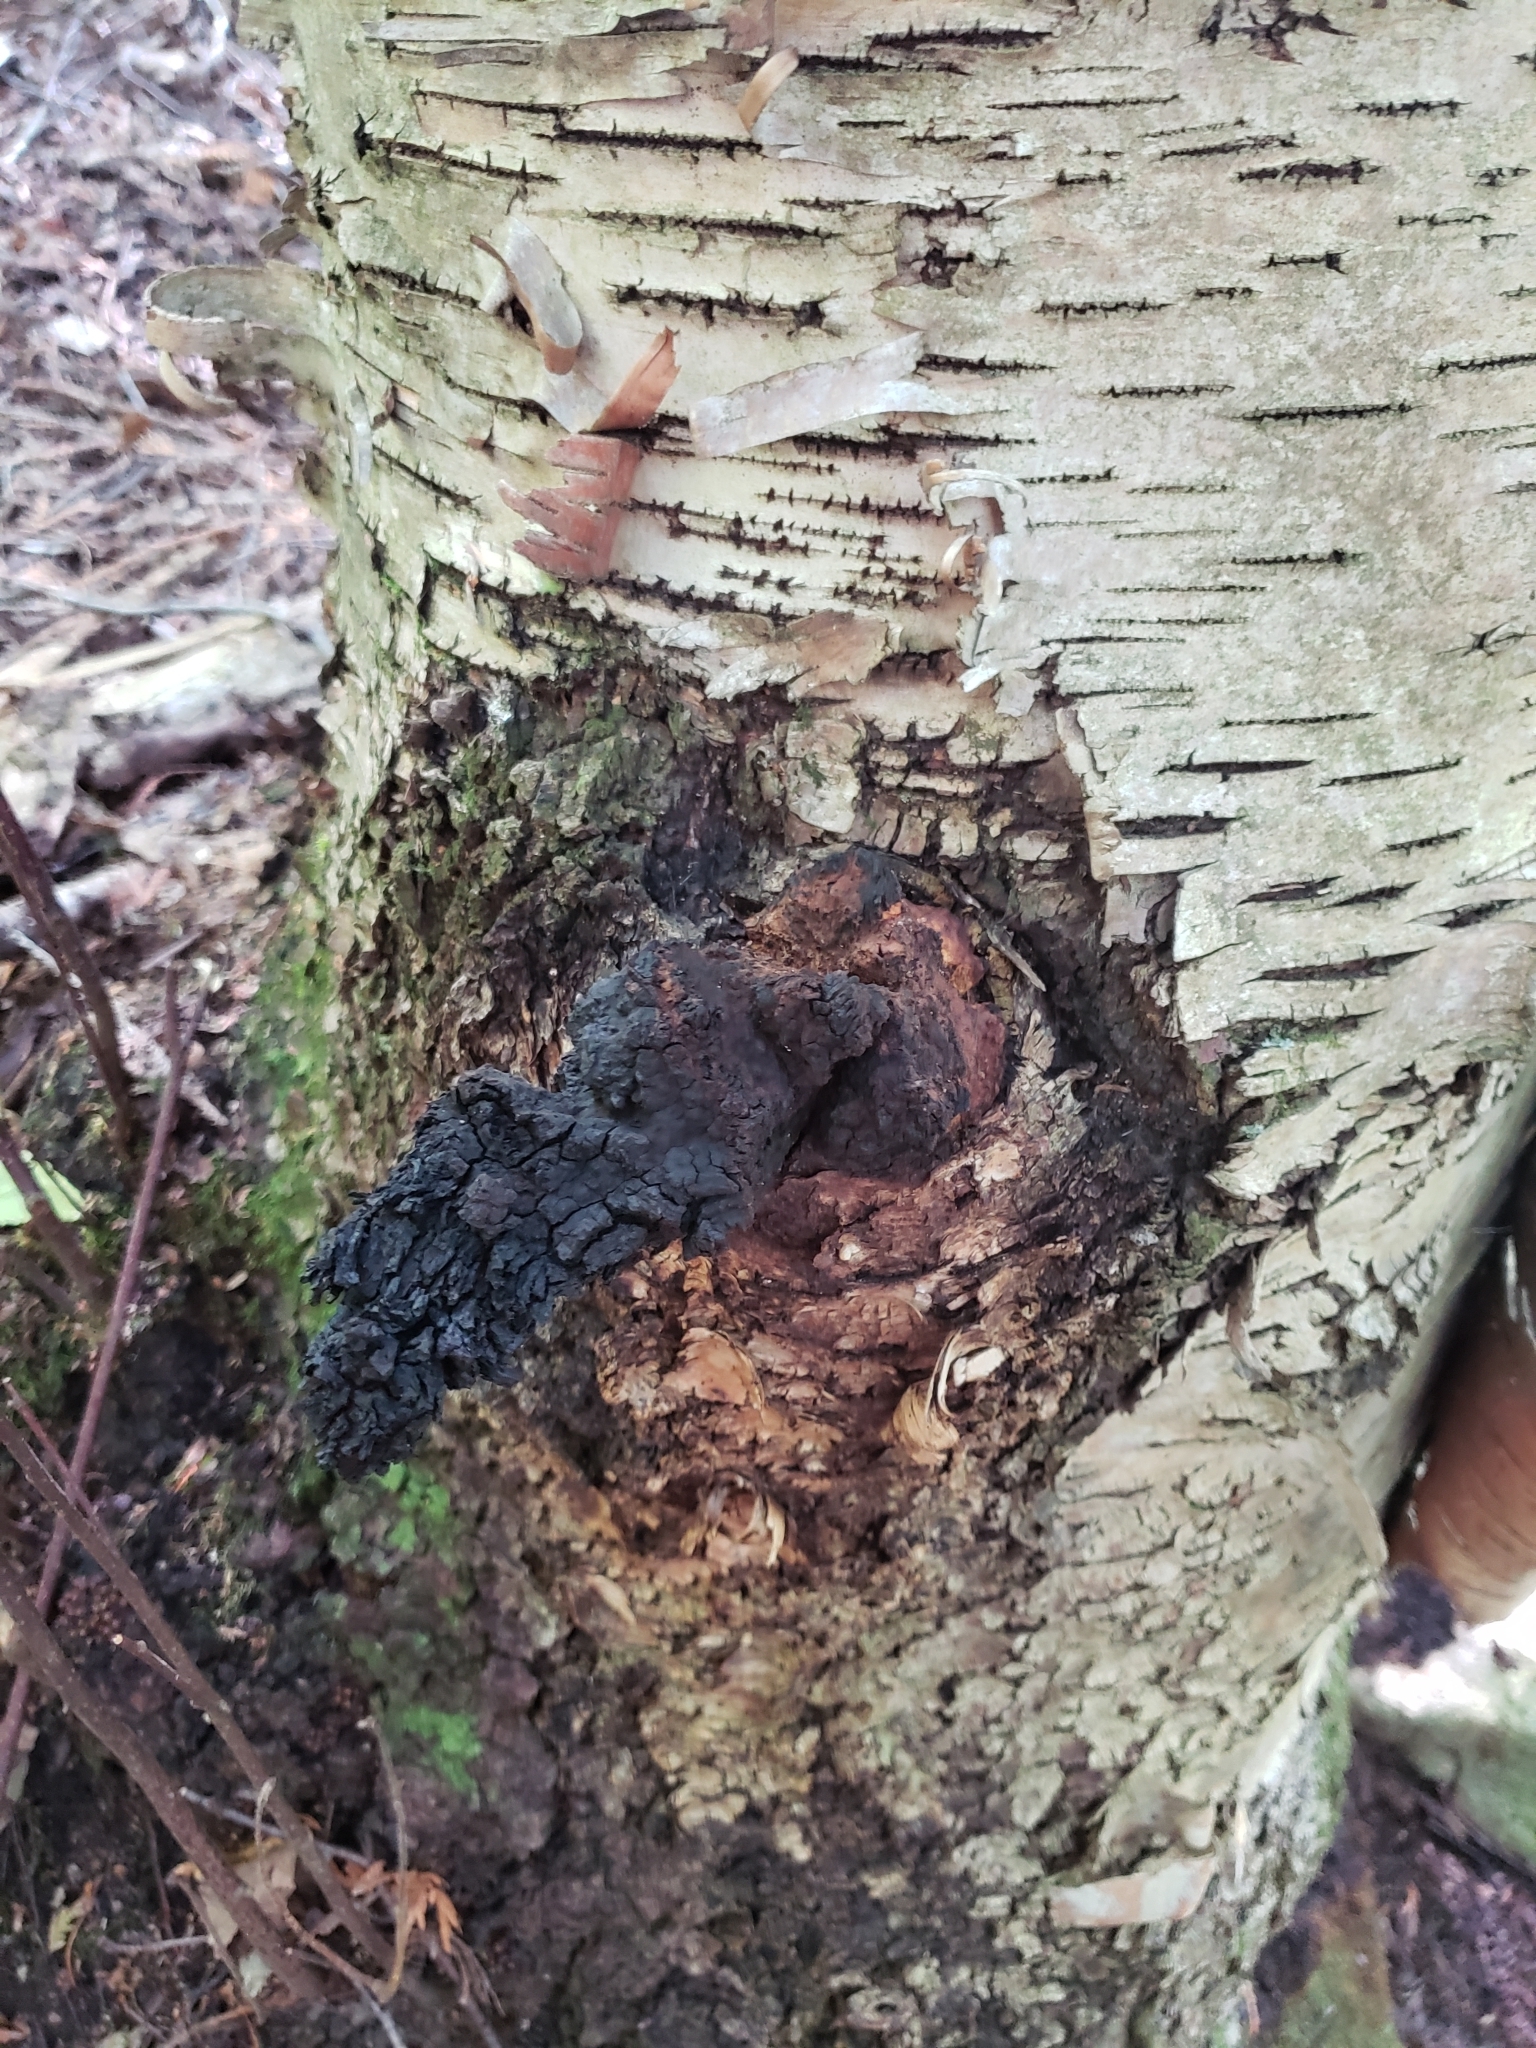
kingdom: Fungi
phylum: Basidiomycota
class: Agaricomycetes
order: Hymenochaetales
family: Hymenochaetaceae
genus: Inonotus
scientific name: Inonotus obliquus
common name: Chaga
